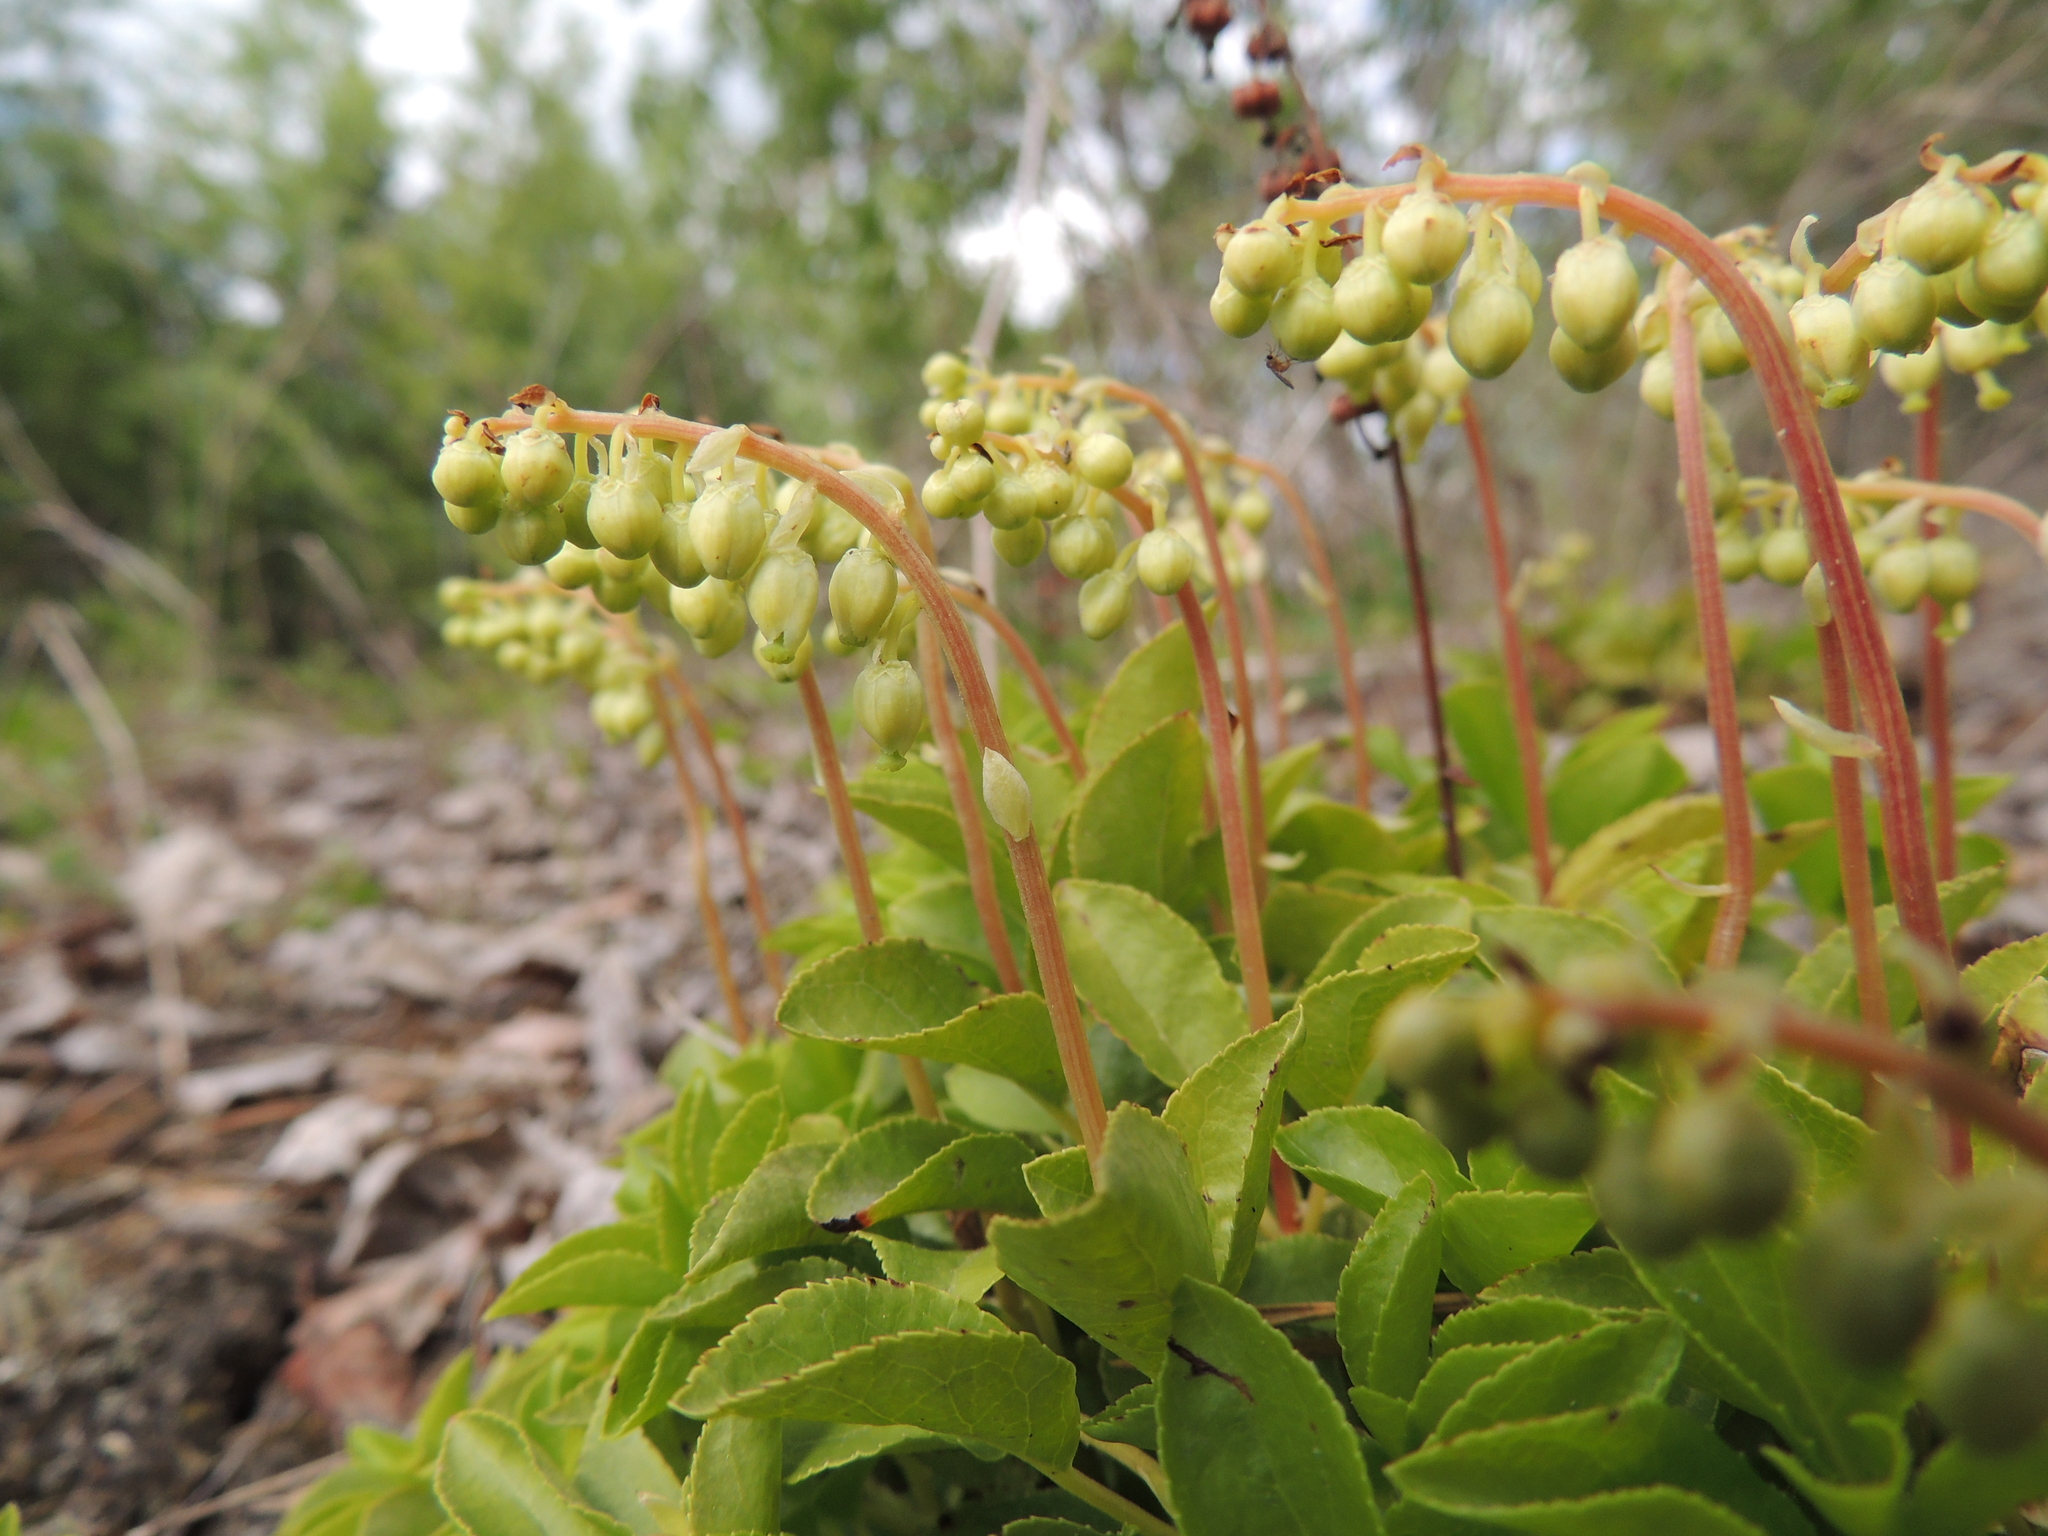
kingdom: Plantae
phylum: Tracheophyta
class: Magnoliopsida
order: Ericales
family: Ericaceae
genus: Orthilia
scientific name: Orthilia secunda
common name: One-sided orthilia
